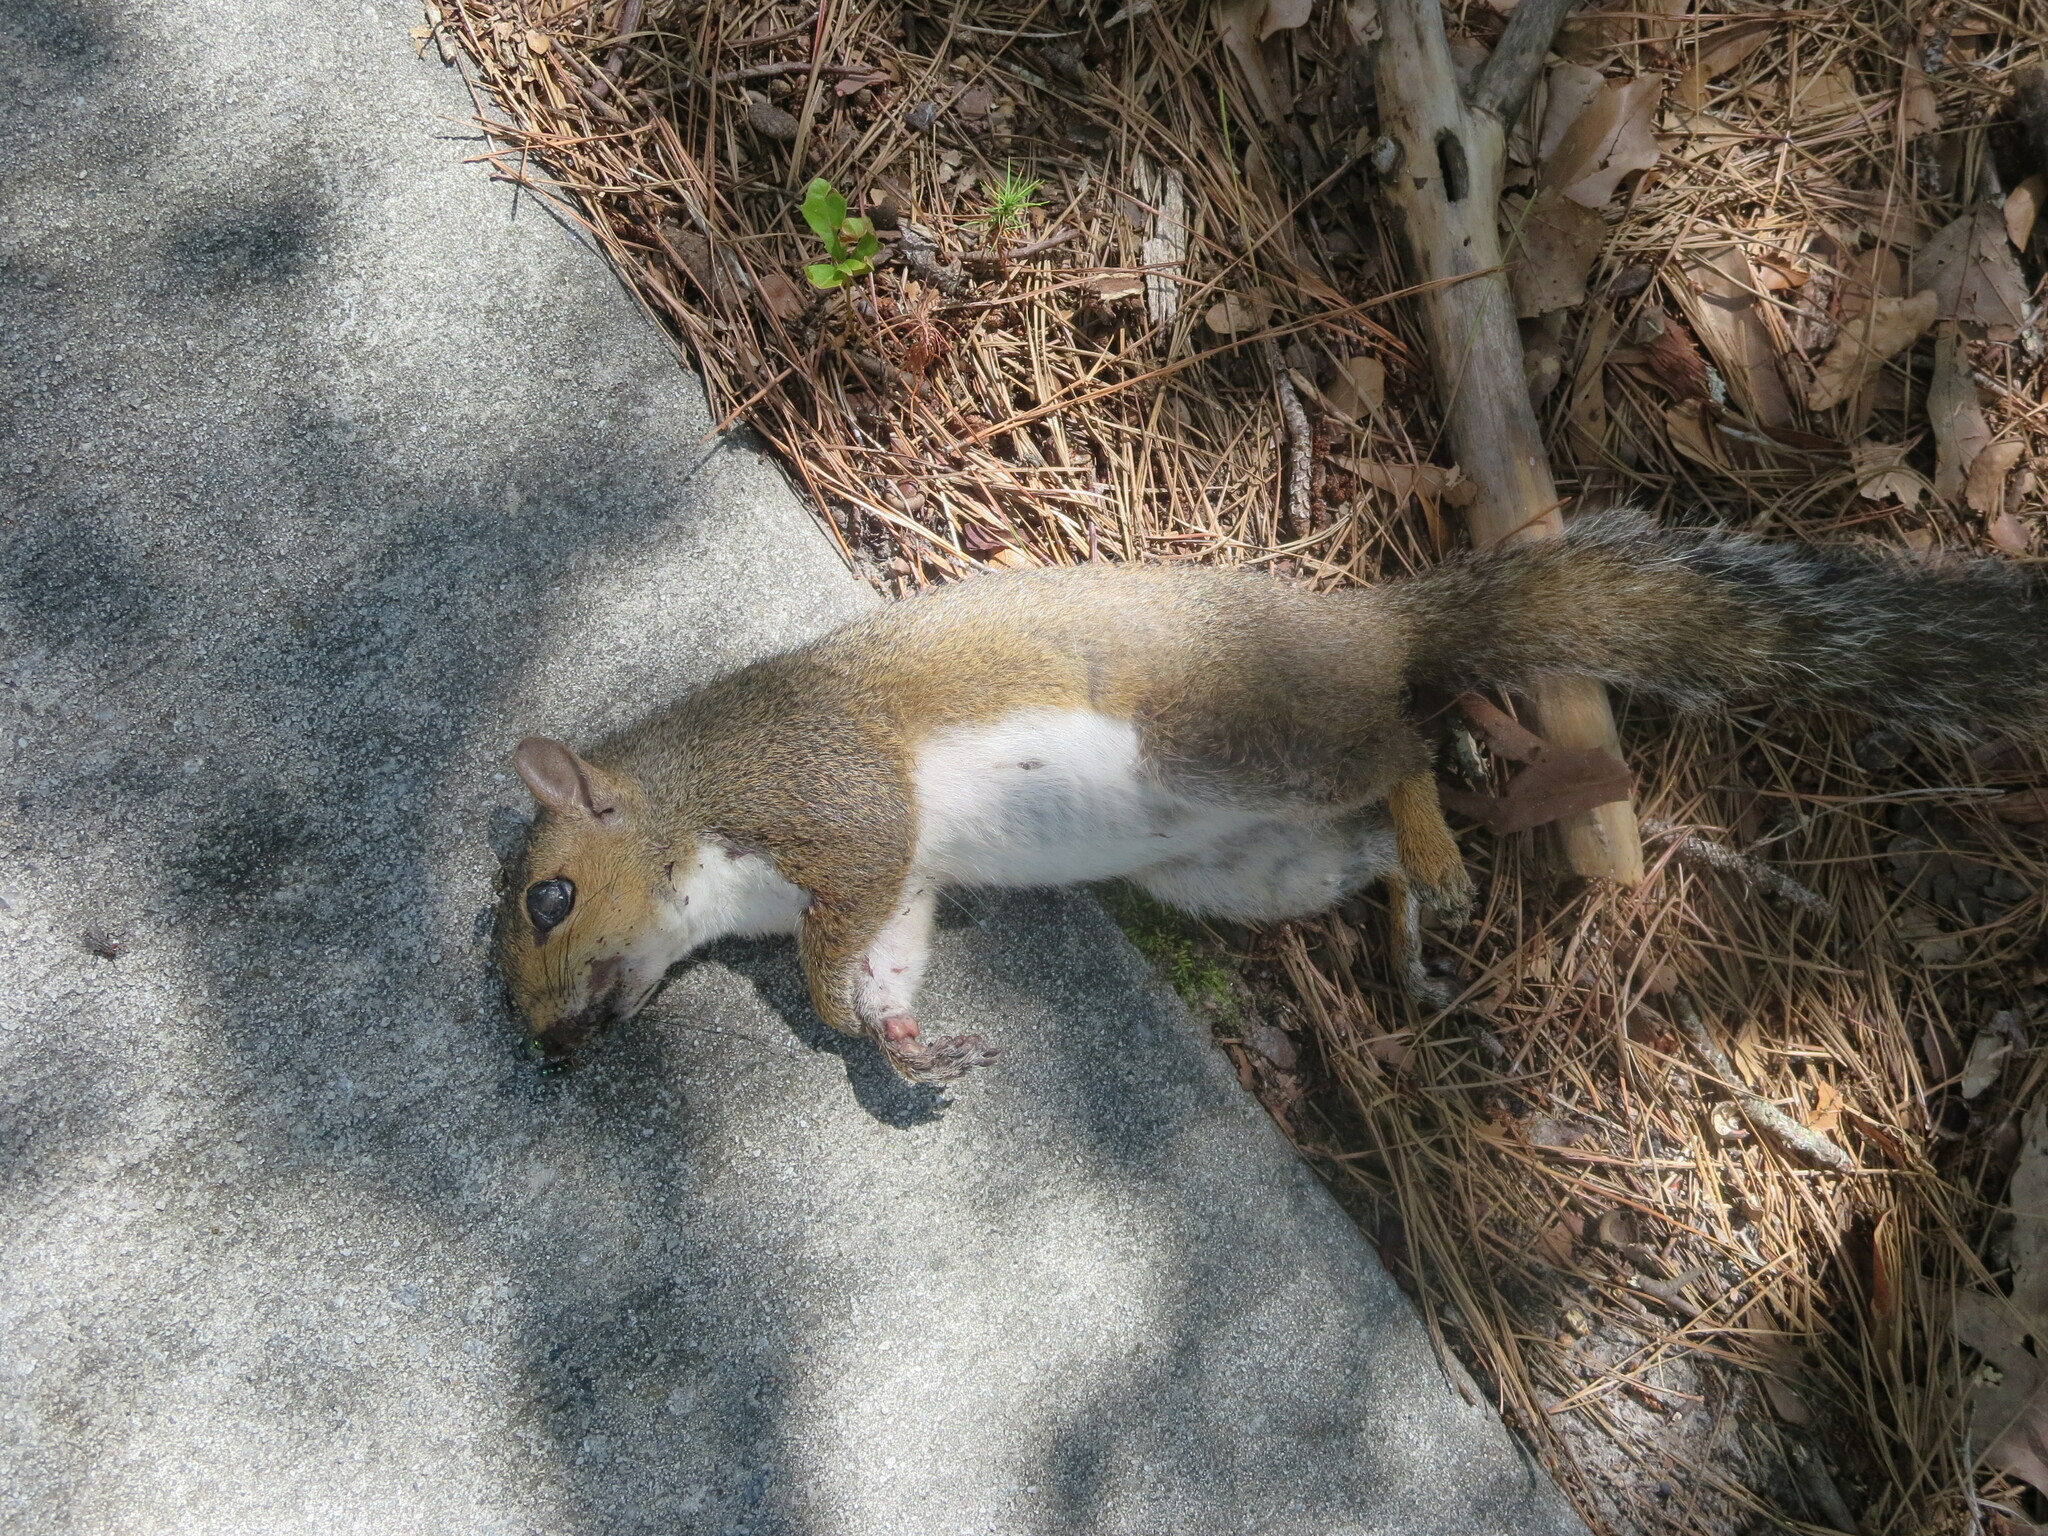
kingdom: Animalia
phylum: Chordata
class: Mammalia
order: Rodentia
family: Sciuridae
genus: Sciurus
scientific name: Sciurus carolinensis
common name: Eastern gray squirrel
